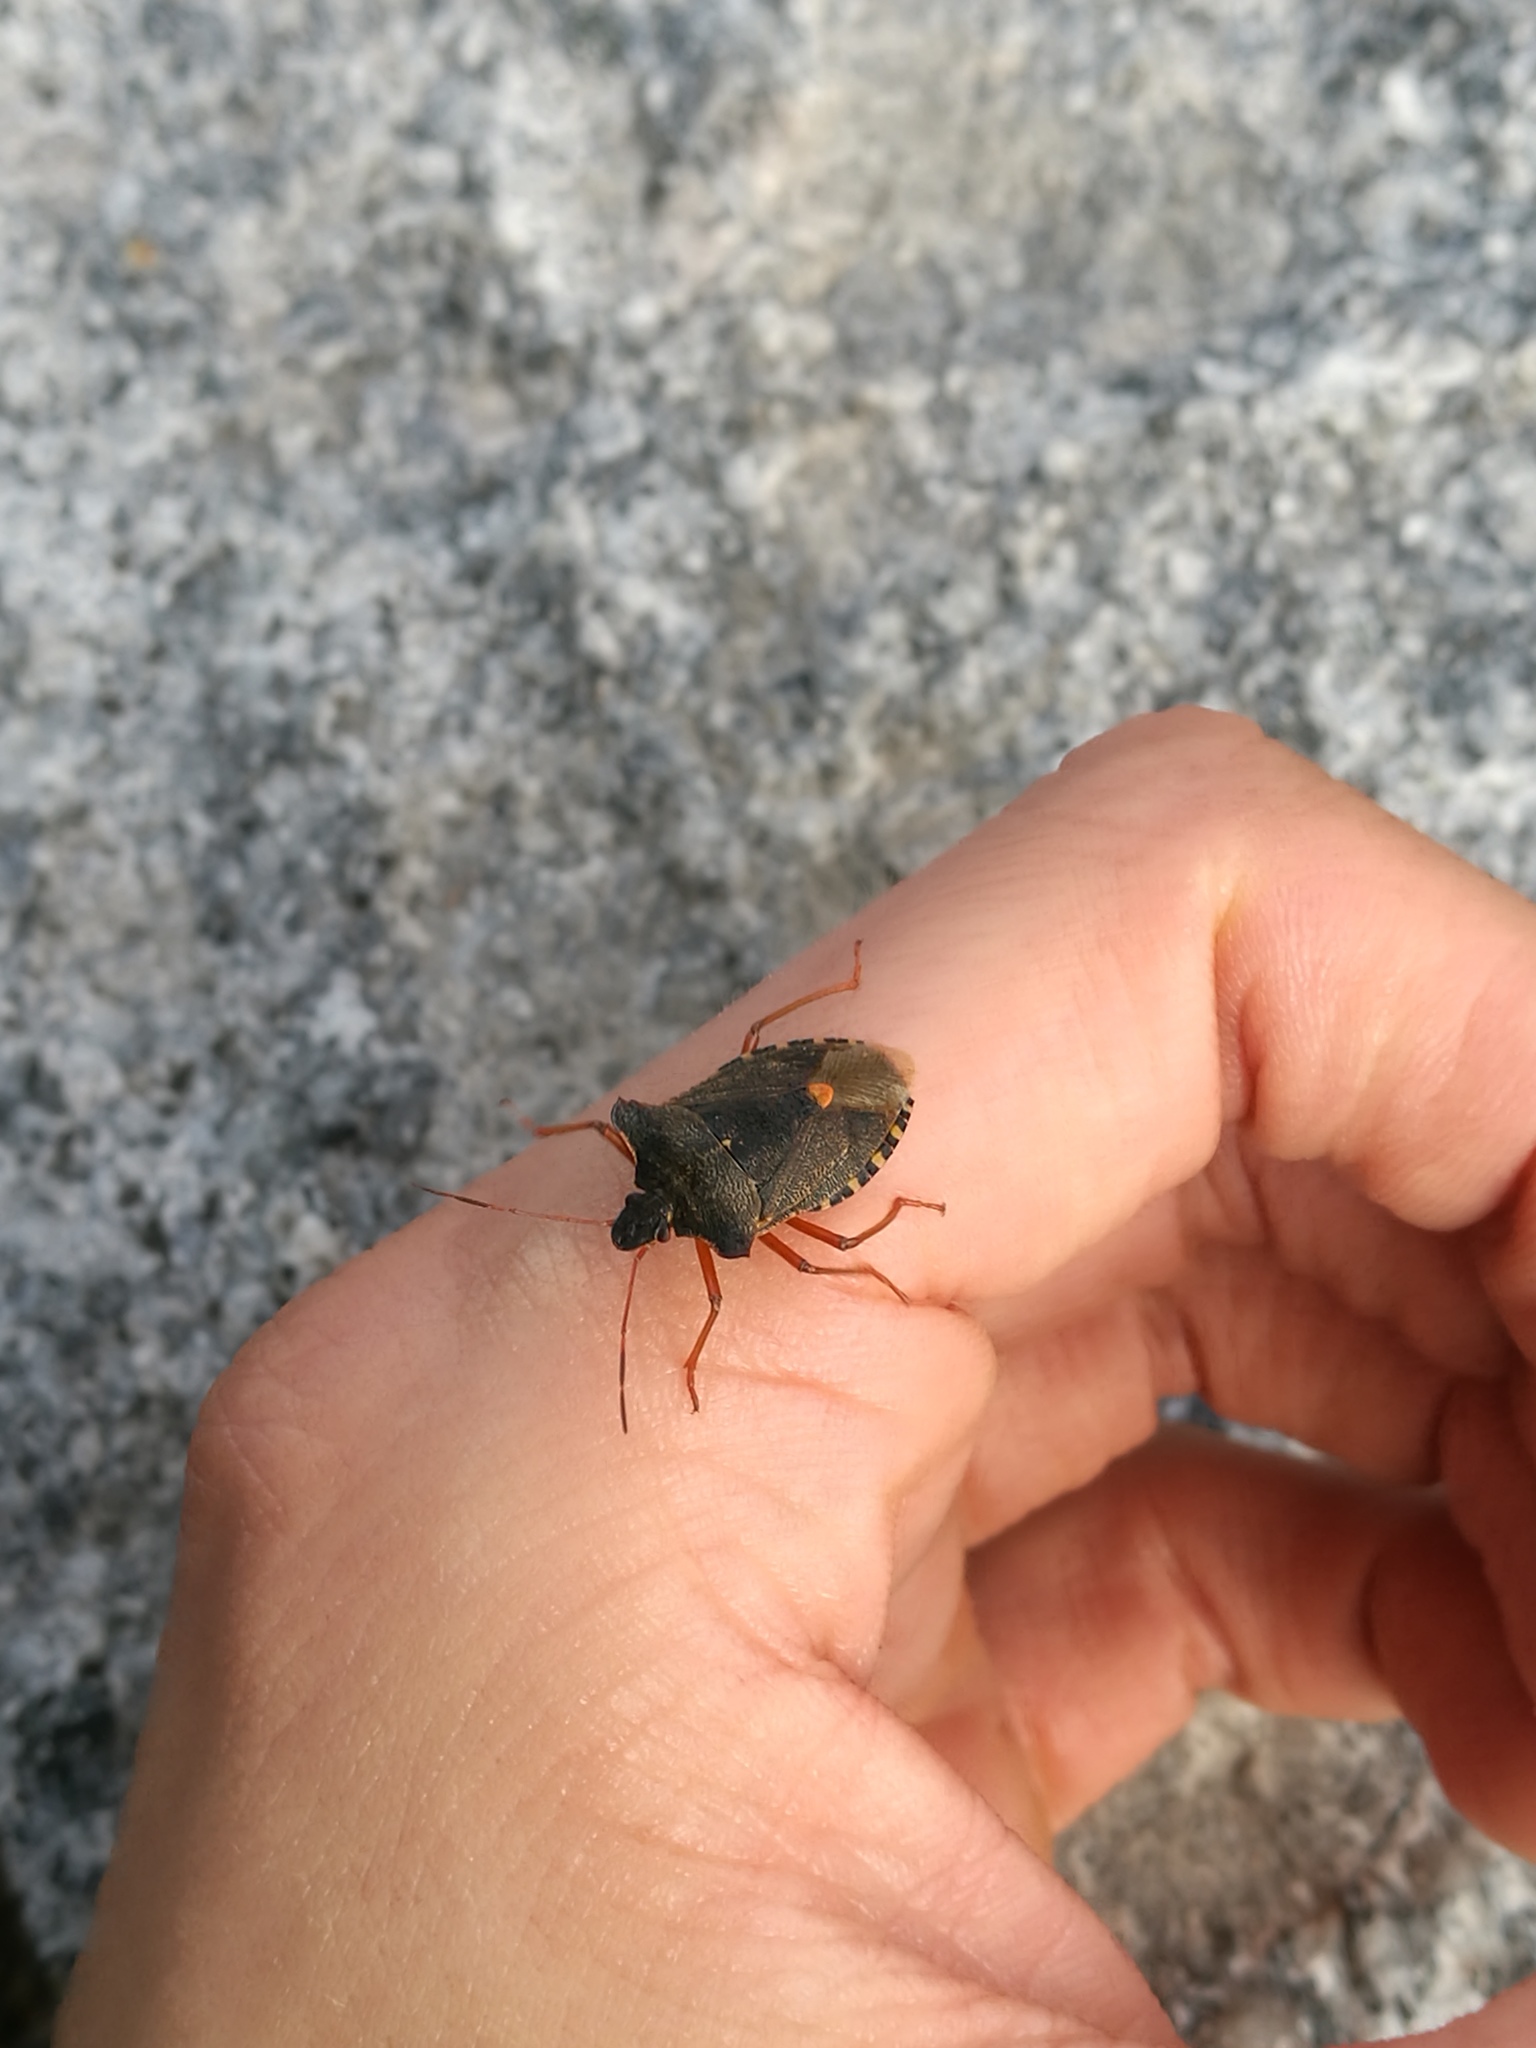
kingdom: Animalia
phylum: Arthropoda
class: Insecta
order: Hemiptera
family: Pentatomidae
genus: Pentatoma
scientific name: Pentatoma rufipes
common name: Forest bug
